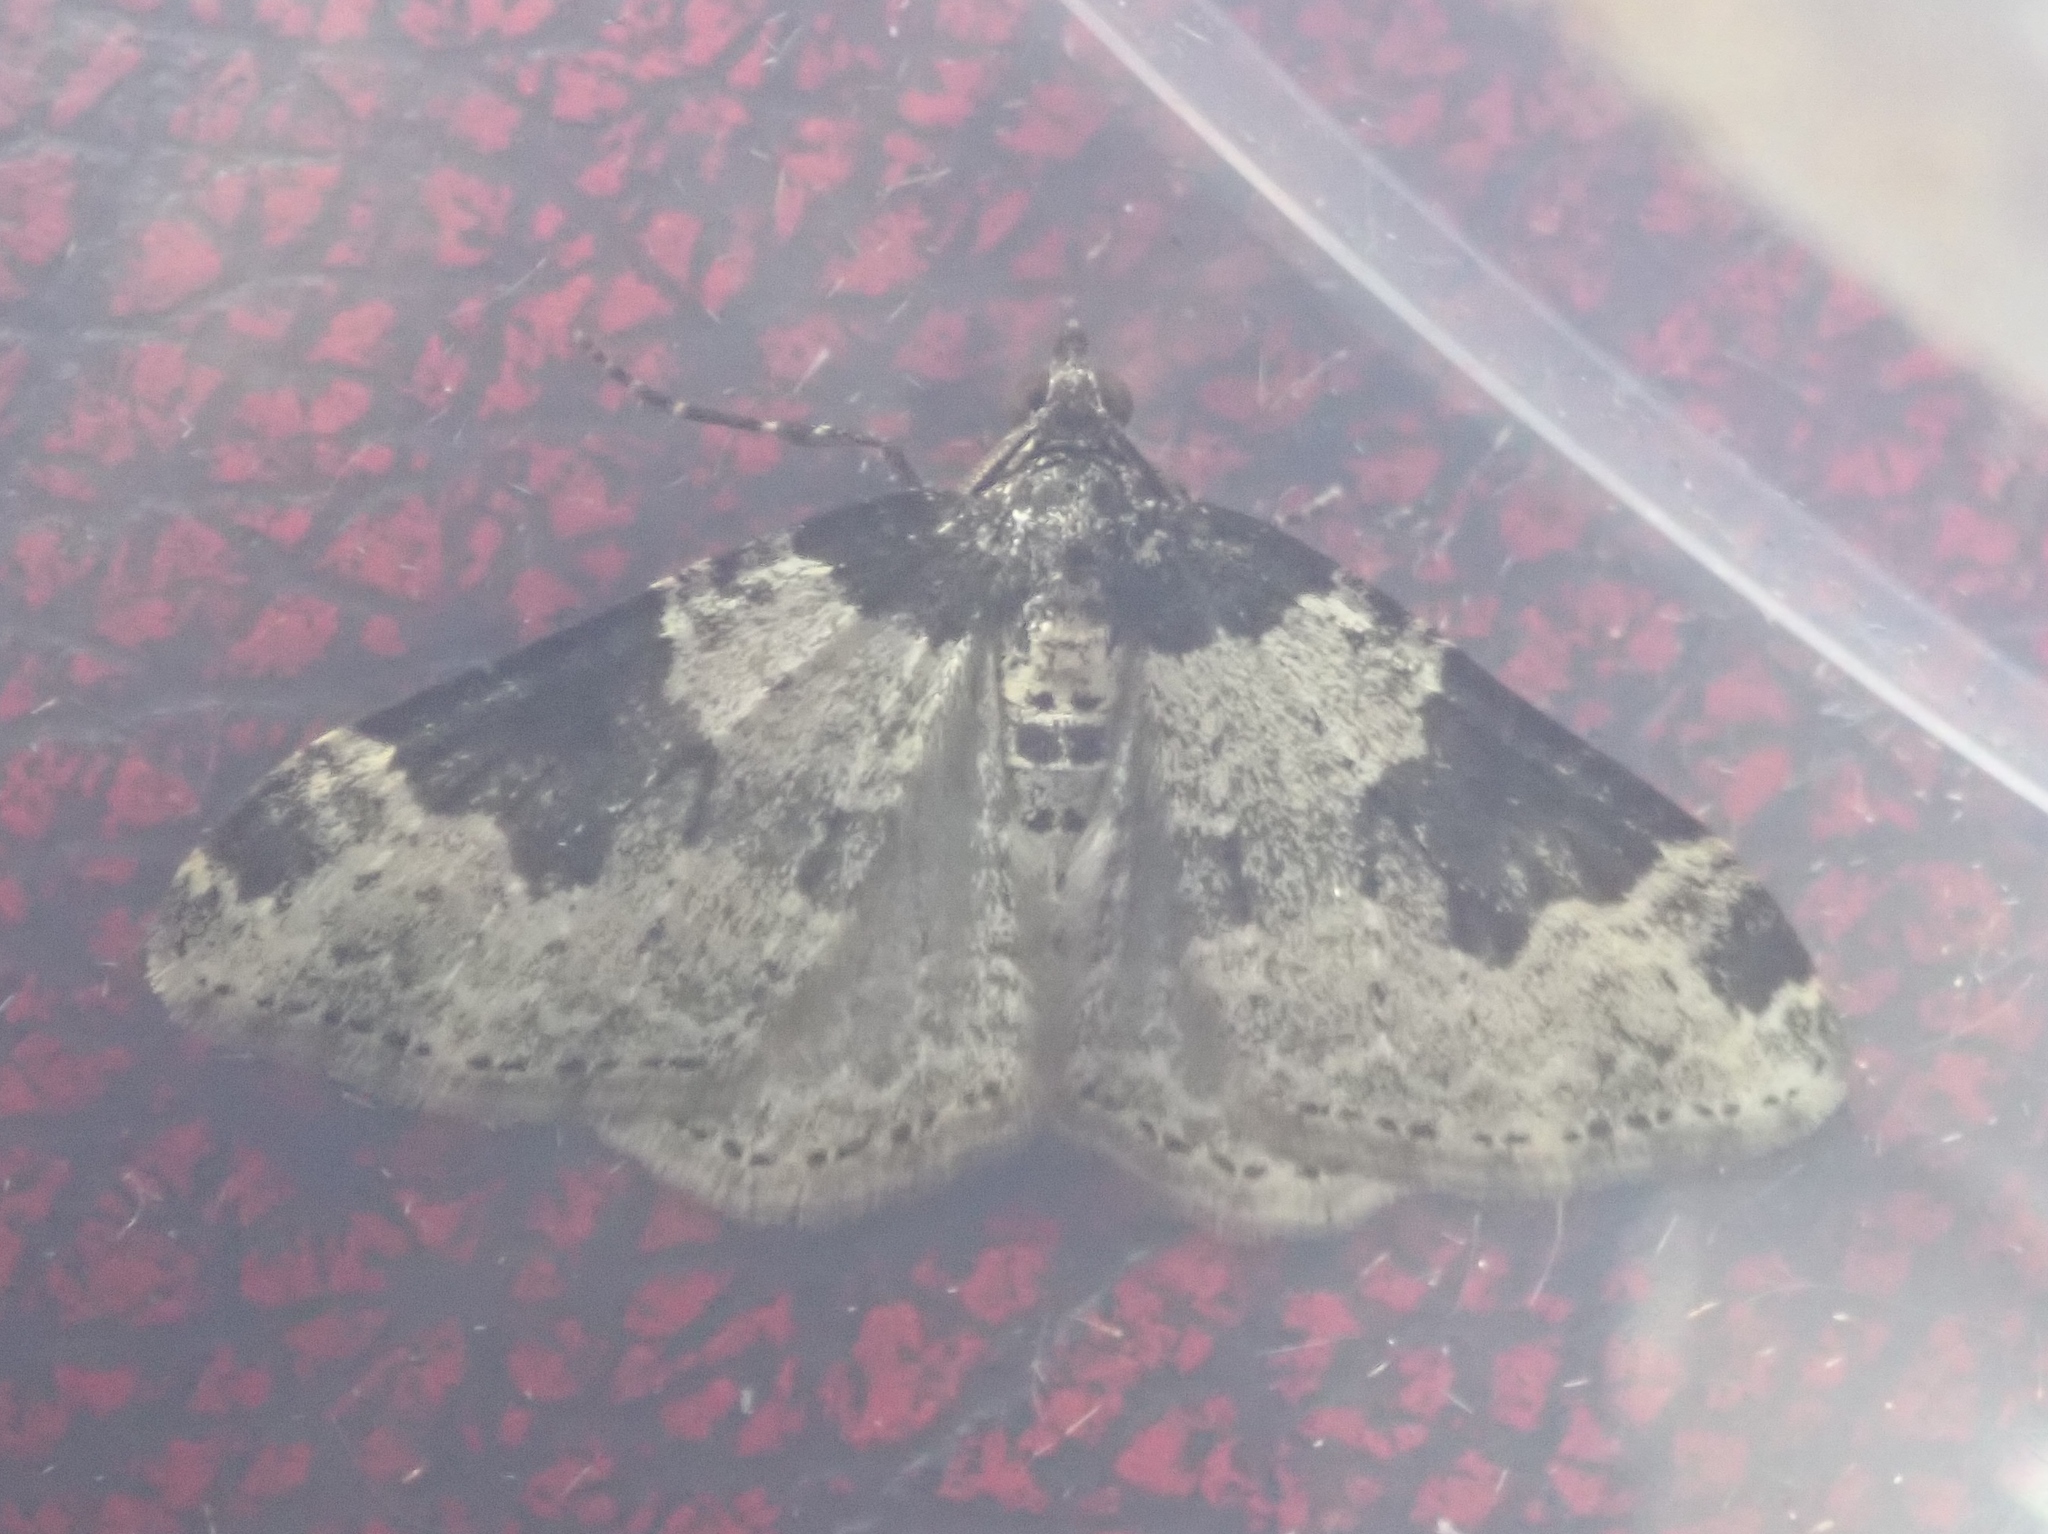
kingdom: Animalia
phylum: Arthropoda
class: Insecta
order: Lepidoptera
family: Geometridae
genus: Xanthorhoe
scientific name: Xanthorhoe fluctuata
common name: Garden carpet
